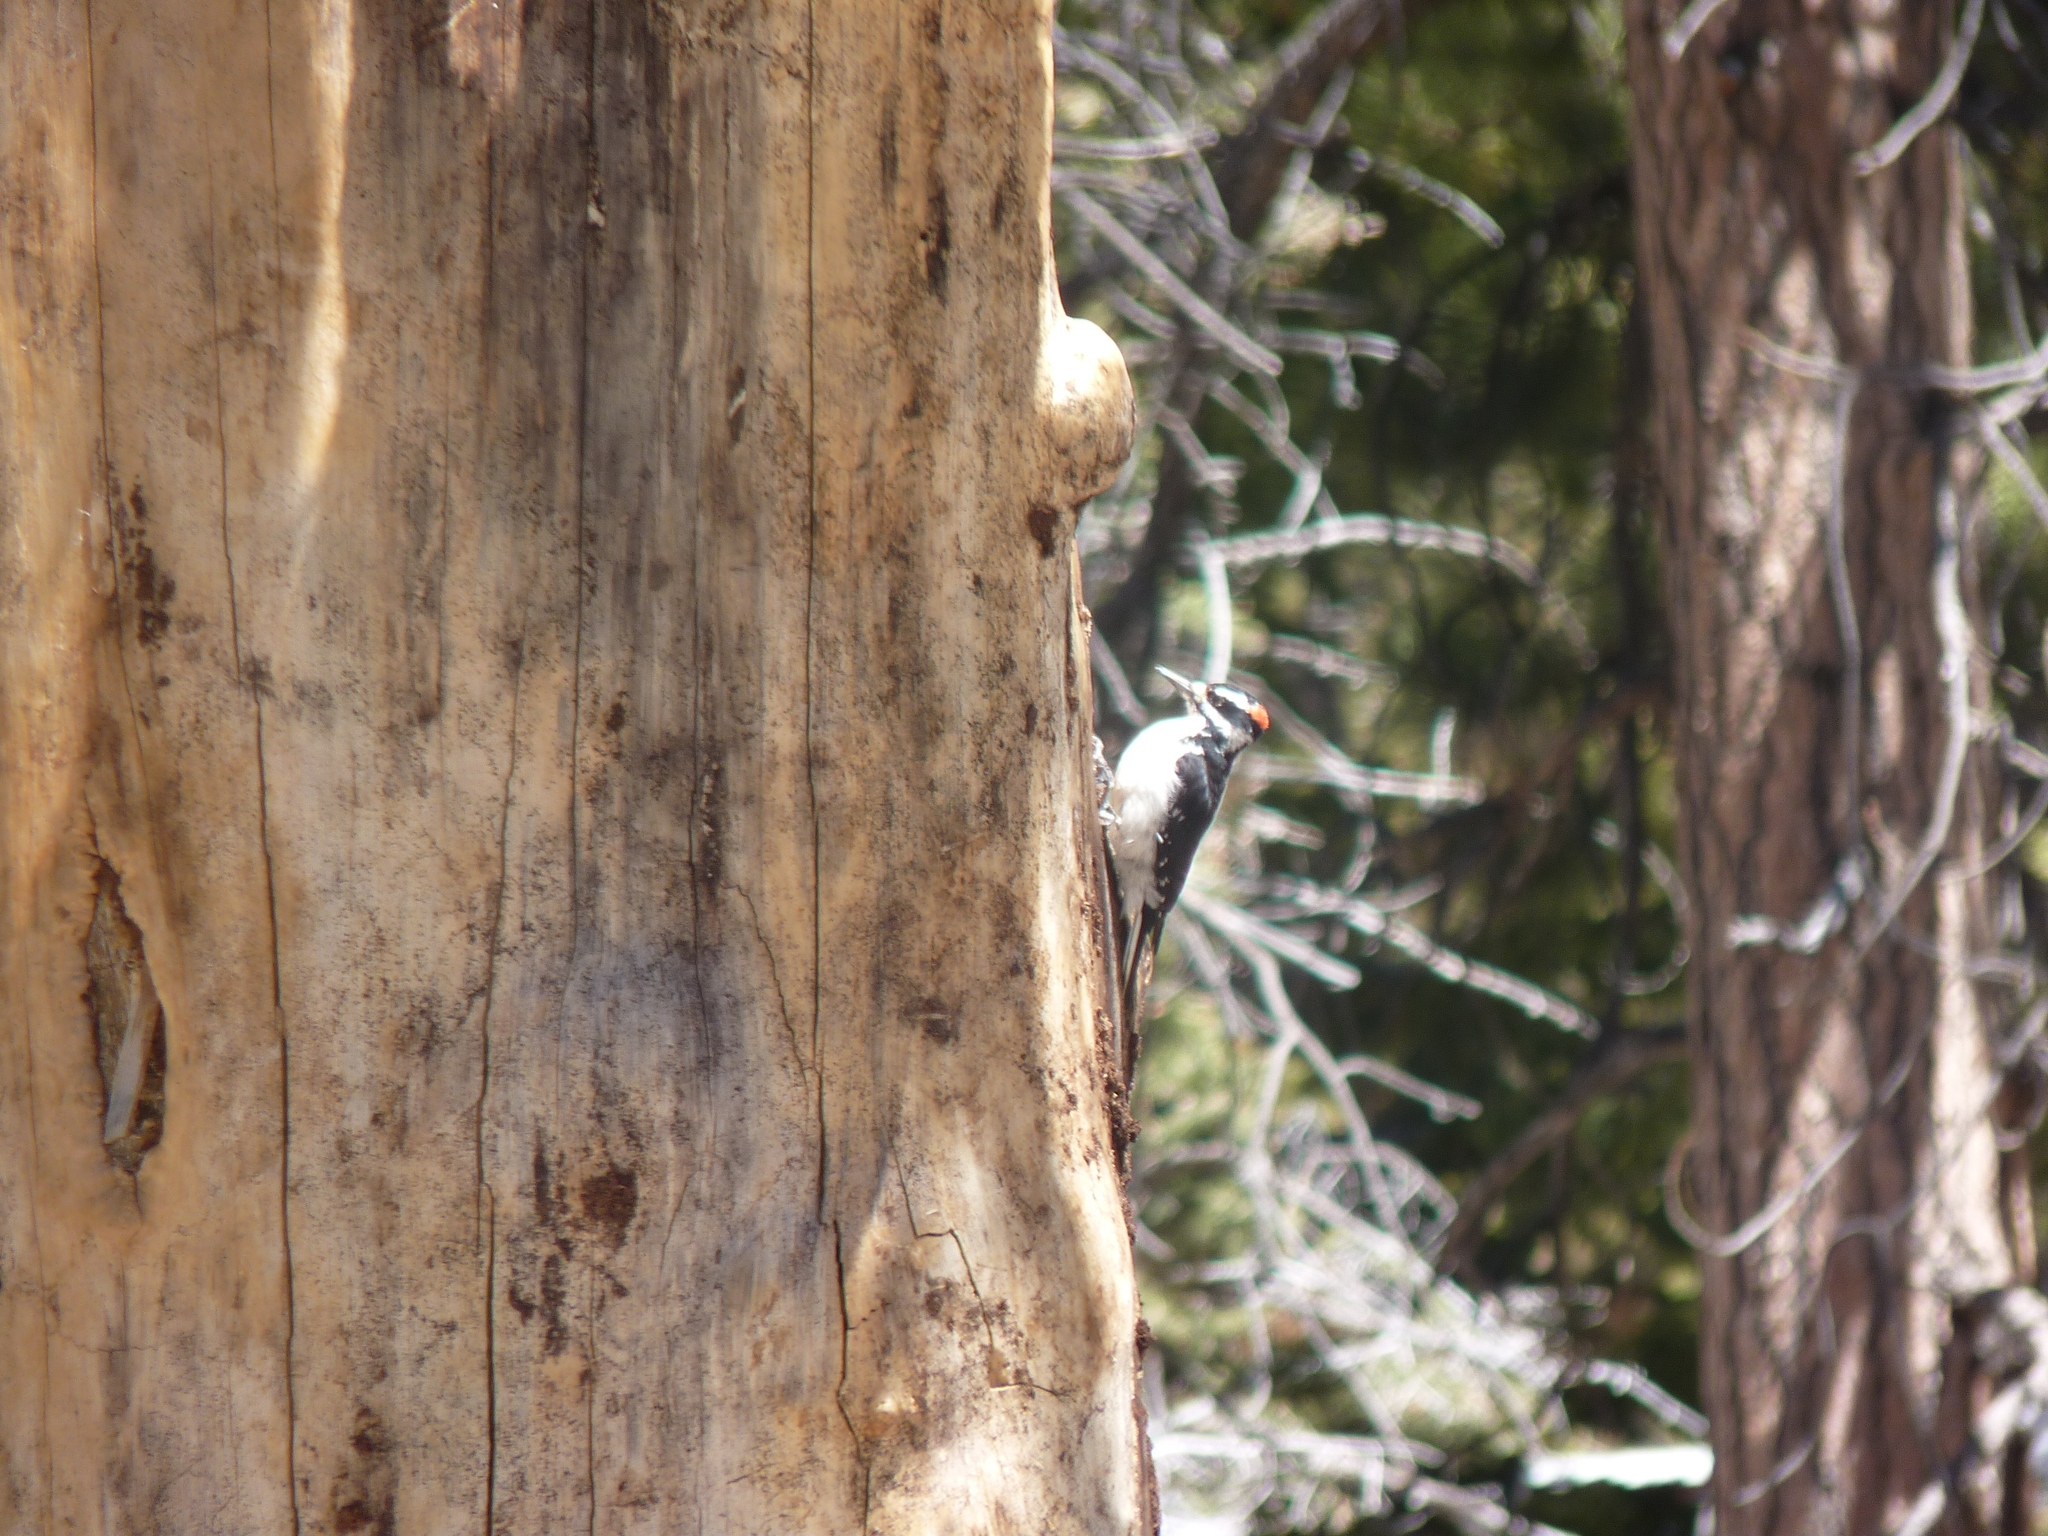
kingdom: Animalia
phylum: Chordata
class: Aves
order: Piciformes
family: Picidae
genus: Leuconotopicus
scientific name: Leuconotopicus villosus
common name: Hairy woodpecker
